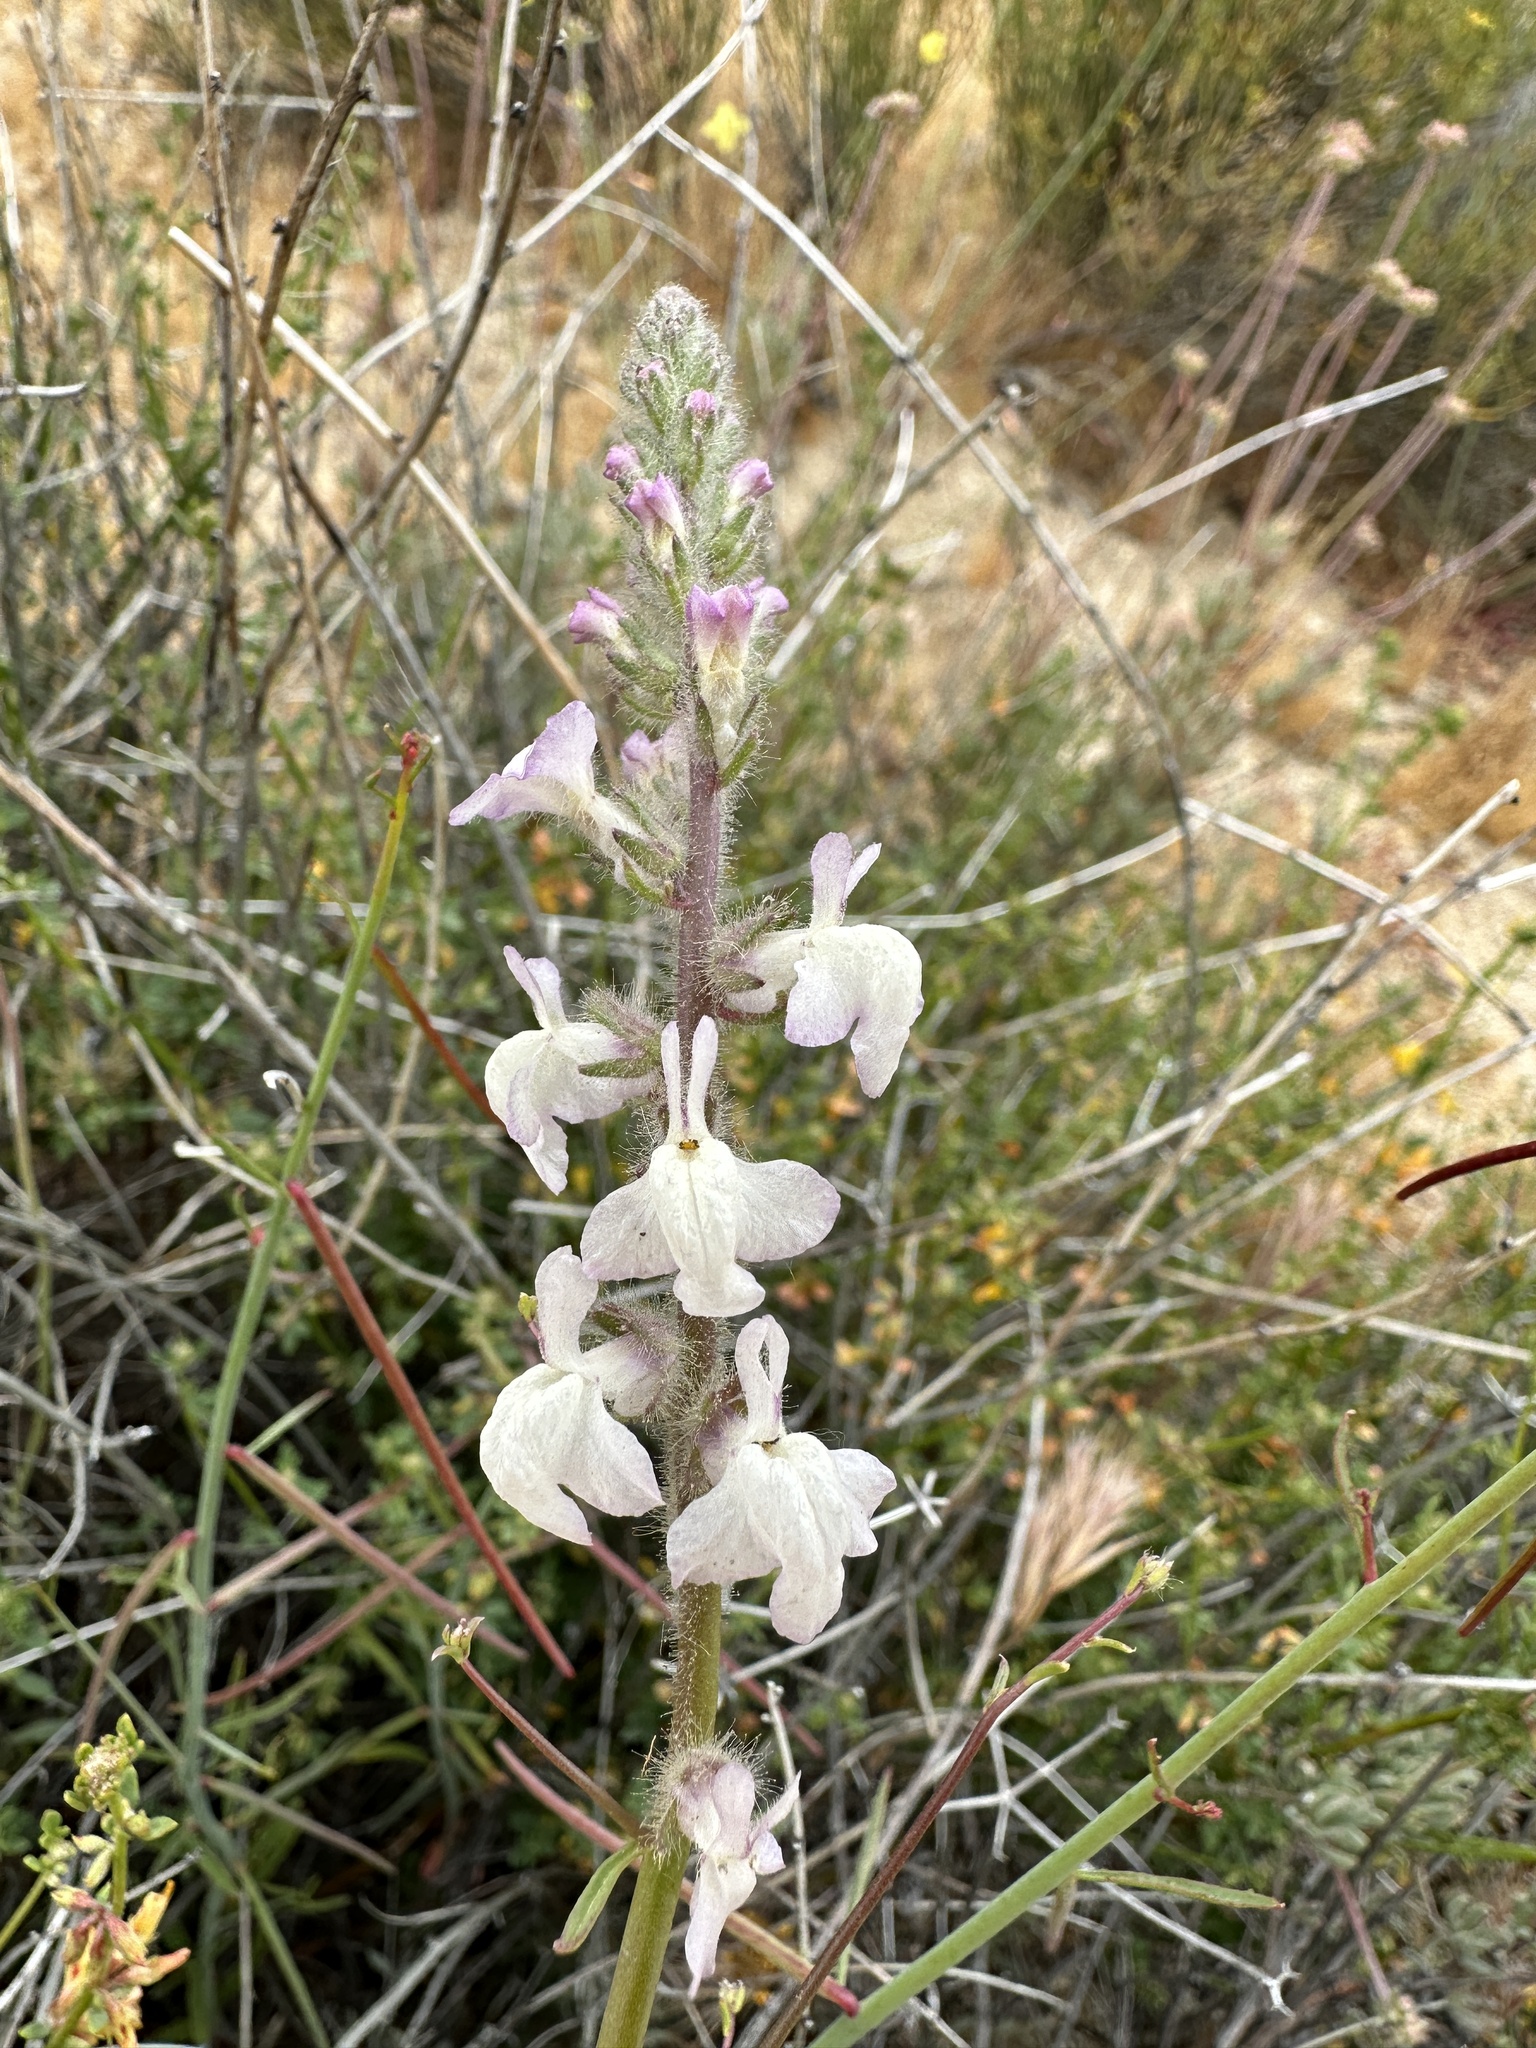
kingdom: Plantae
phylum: Tracheophyta
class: Magnoliopsida
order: Lamiales
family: Plantaginaceae
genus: Sairocarpus
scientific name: Sairocarpus coulterianus
